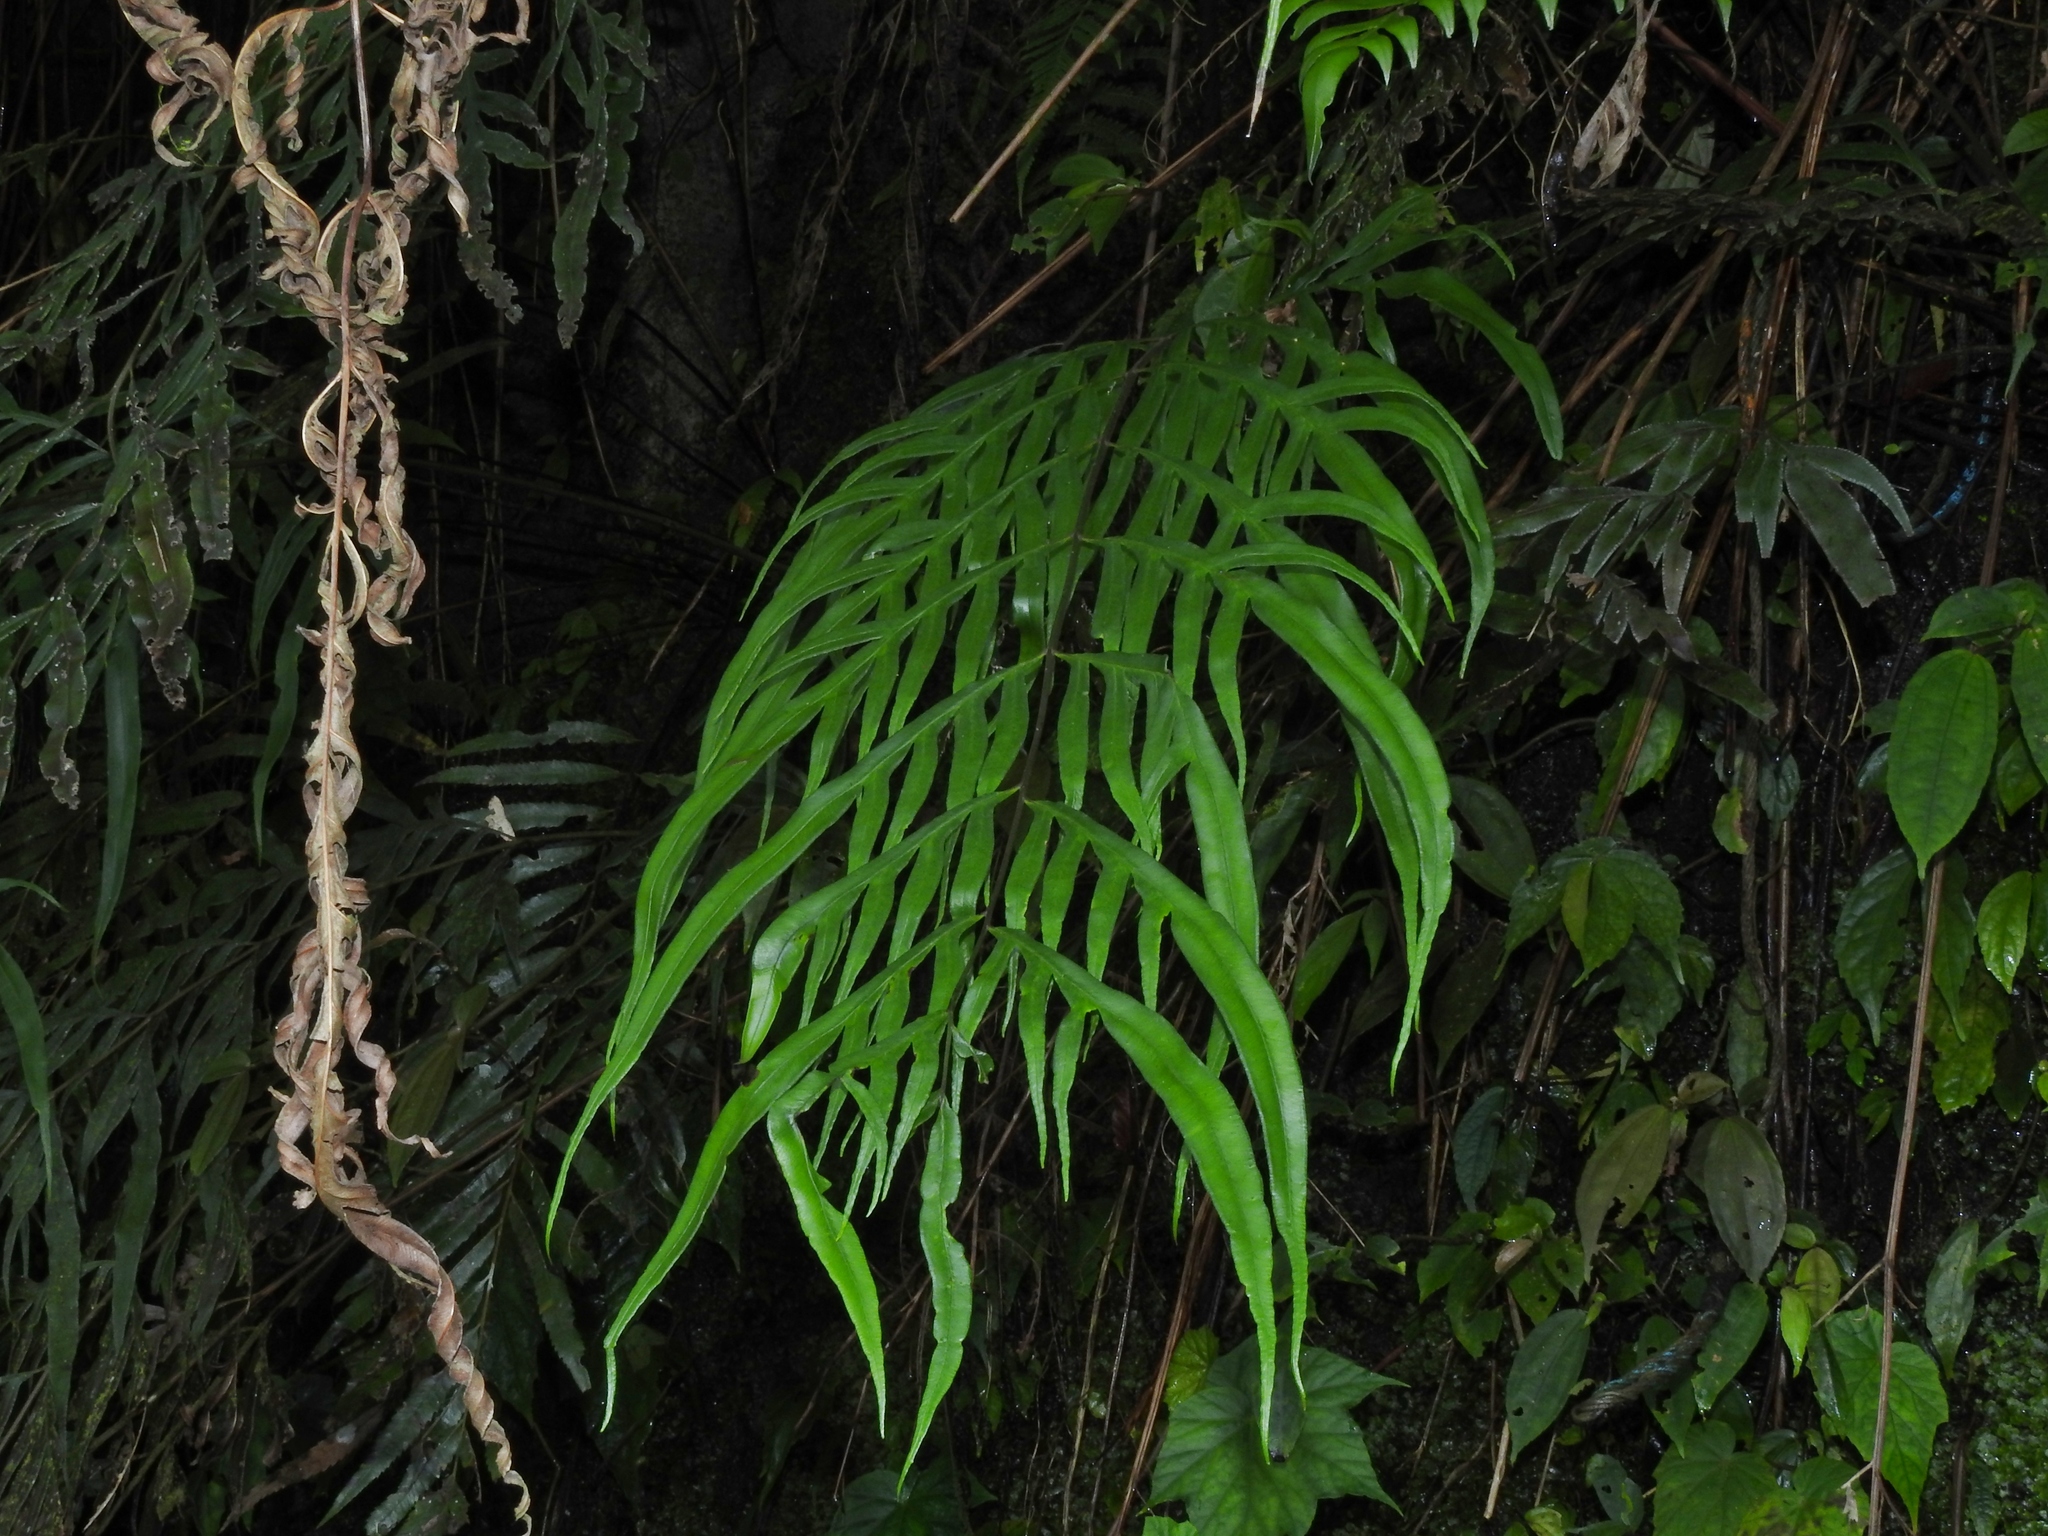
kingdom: Plantae
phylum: Tracheophyta
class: Polypodiopsida
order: Polypodiales
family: Pteridaceae
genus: Pteris
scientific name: Pteris formosana
